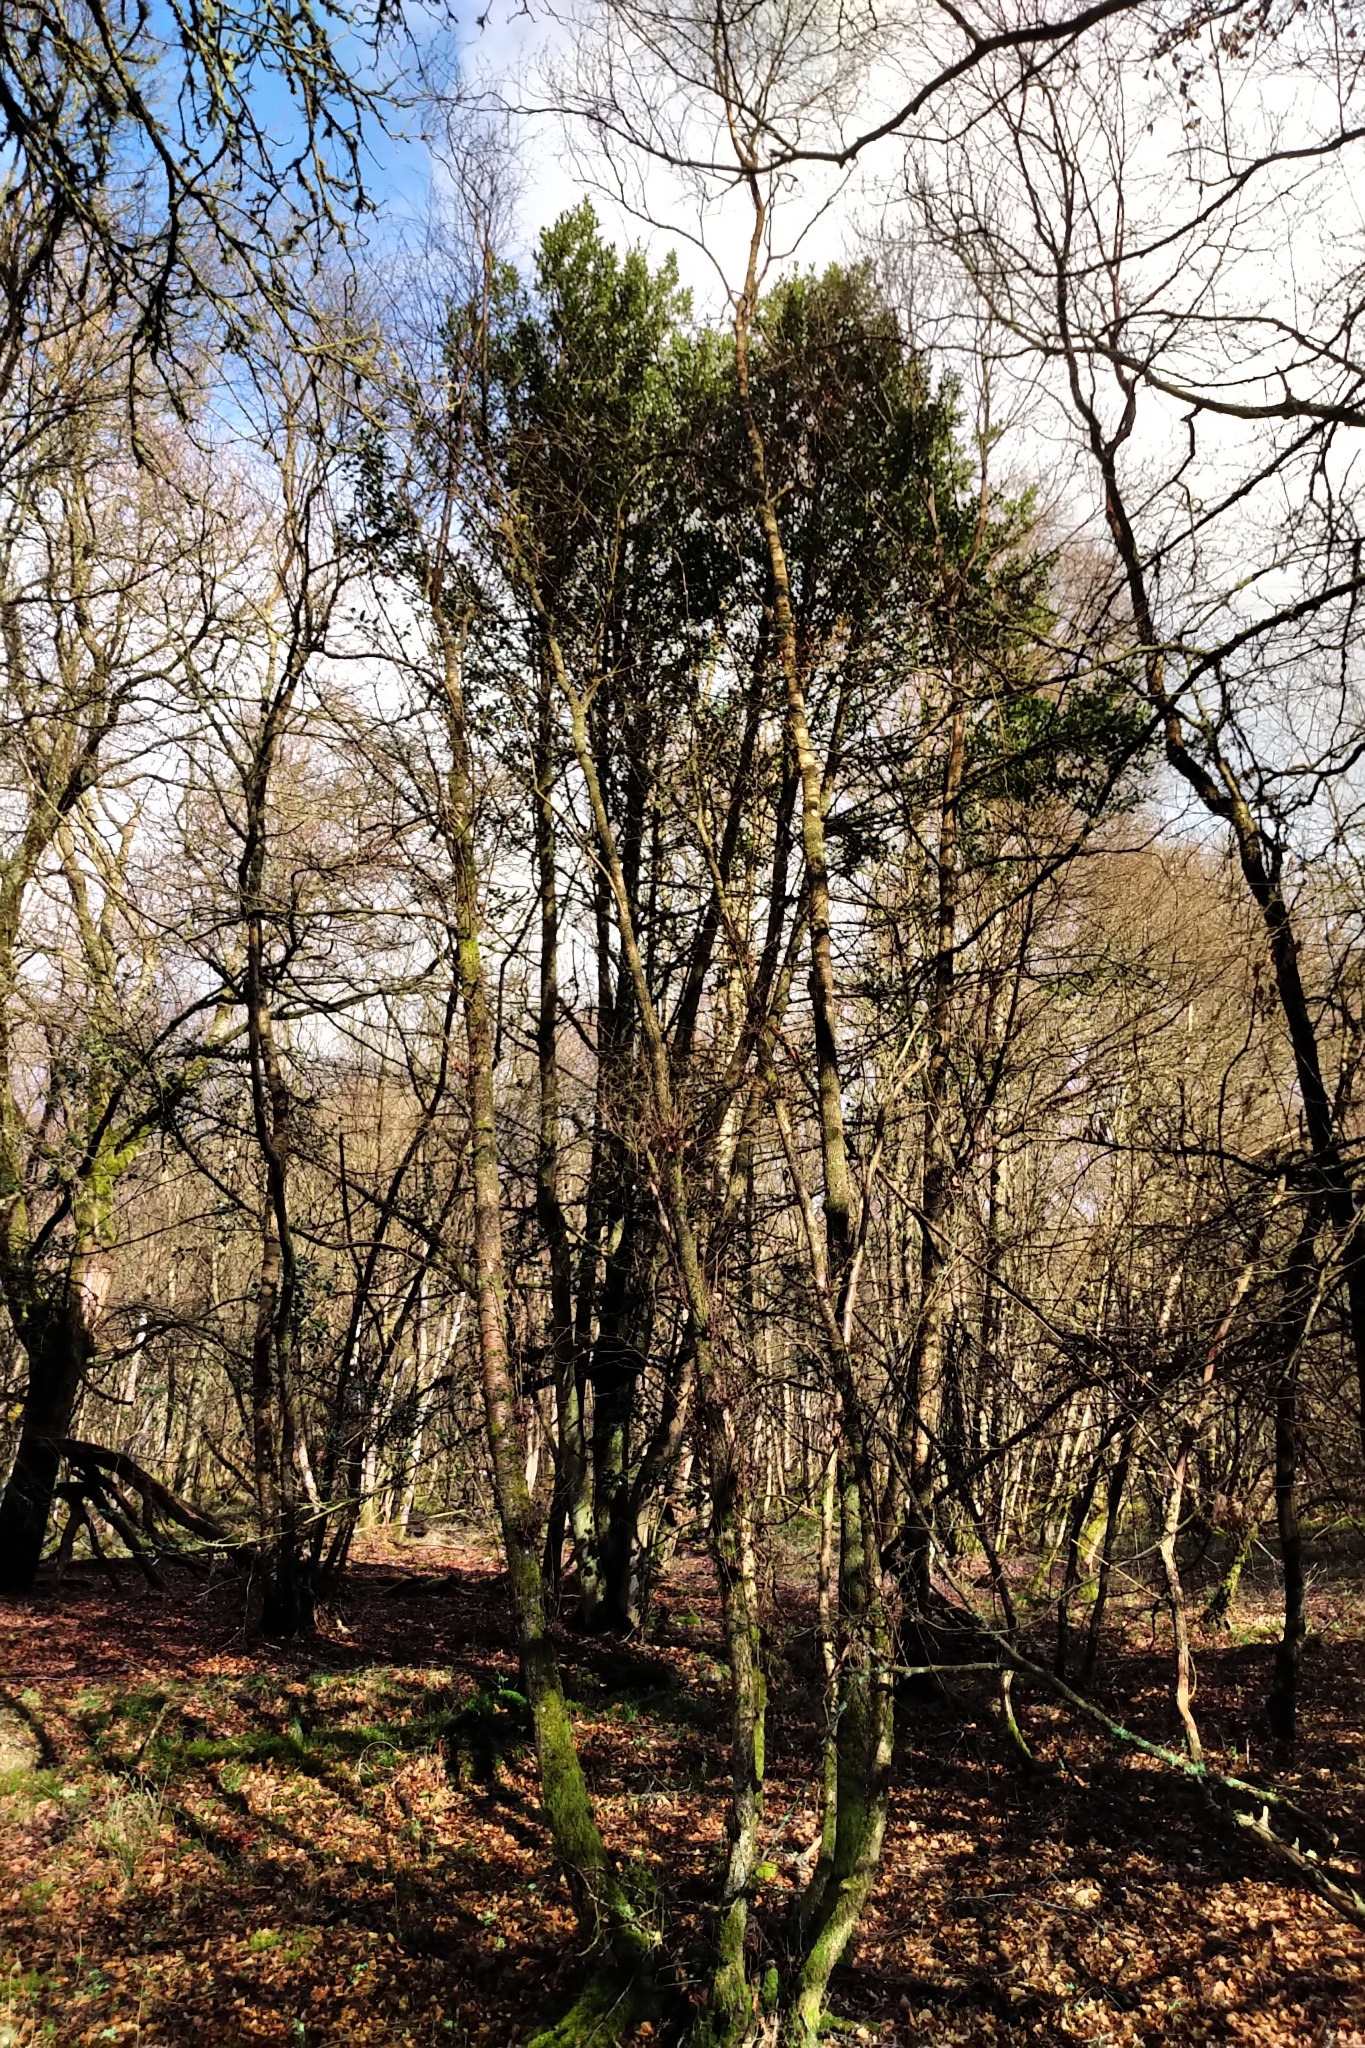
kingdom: Plantae
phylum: Tracheophyta
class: Magnoliopsida
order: Aquifoliales
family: Aquifoliaceae
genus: Ilex
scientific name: Ilex aquifolium
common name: English holly
